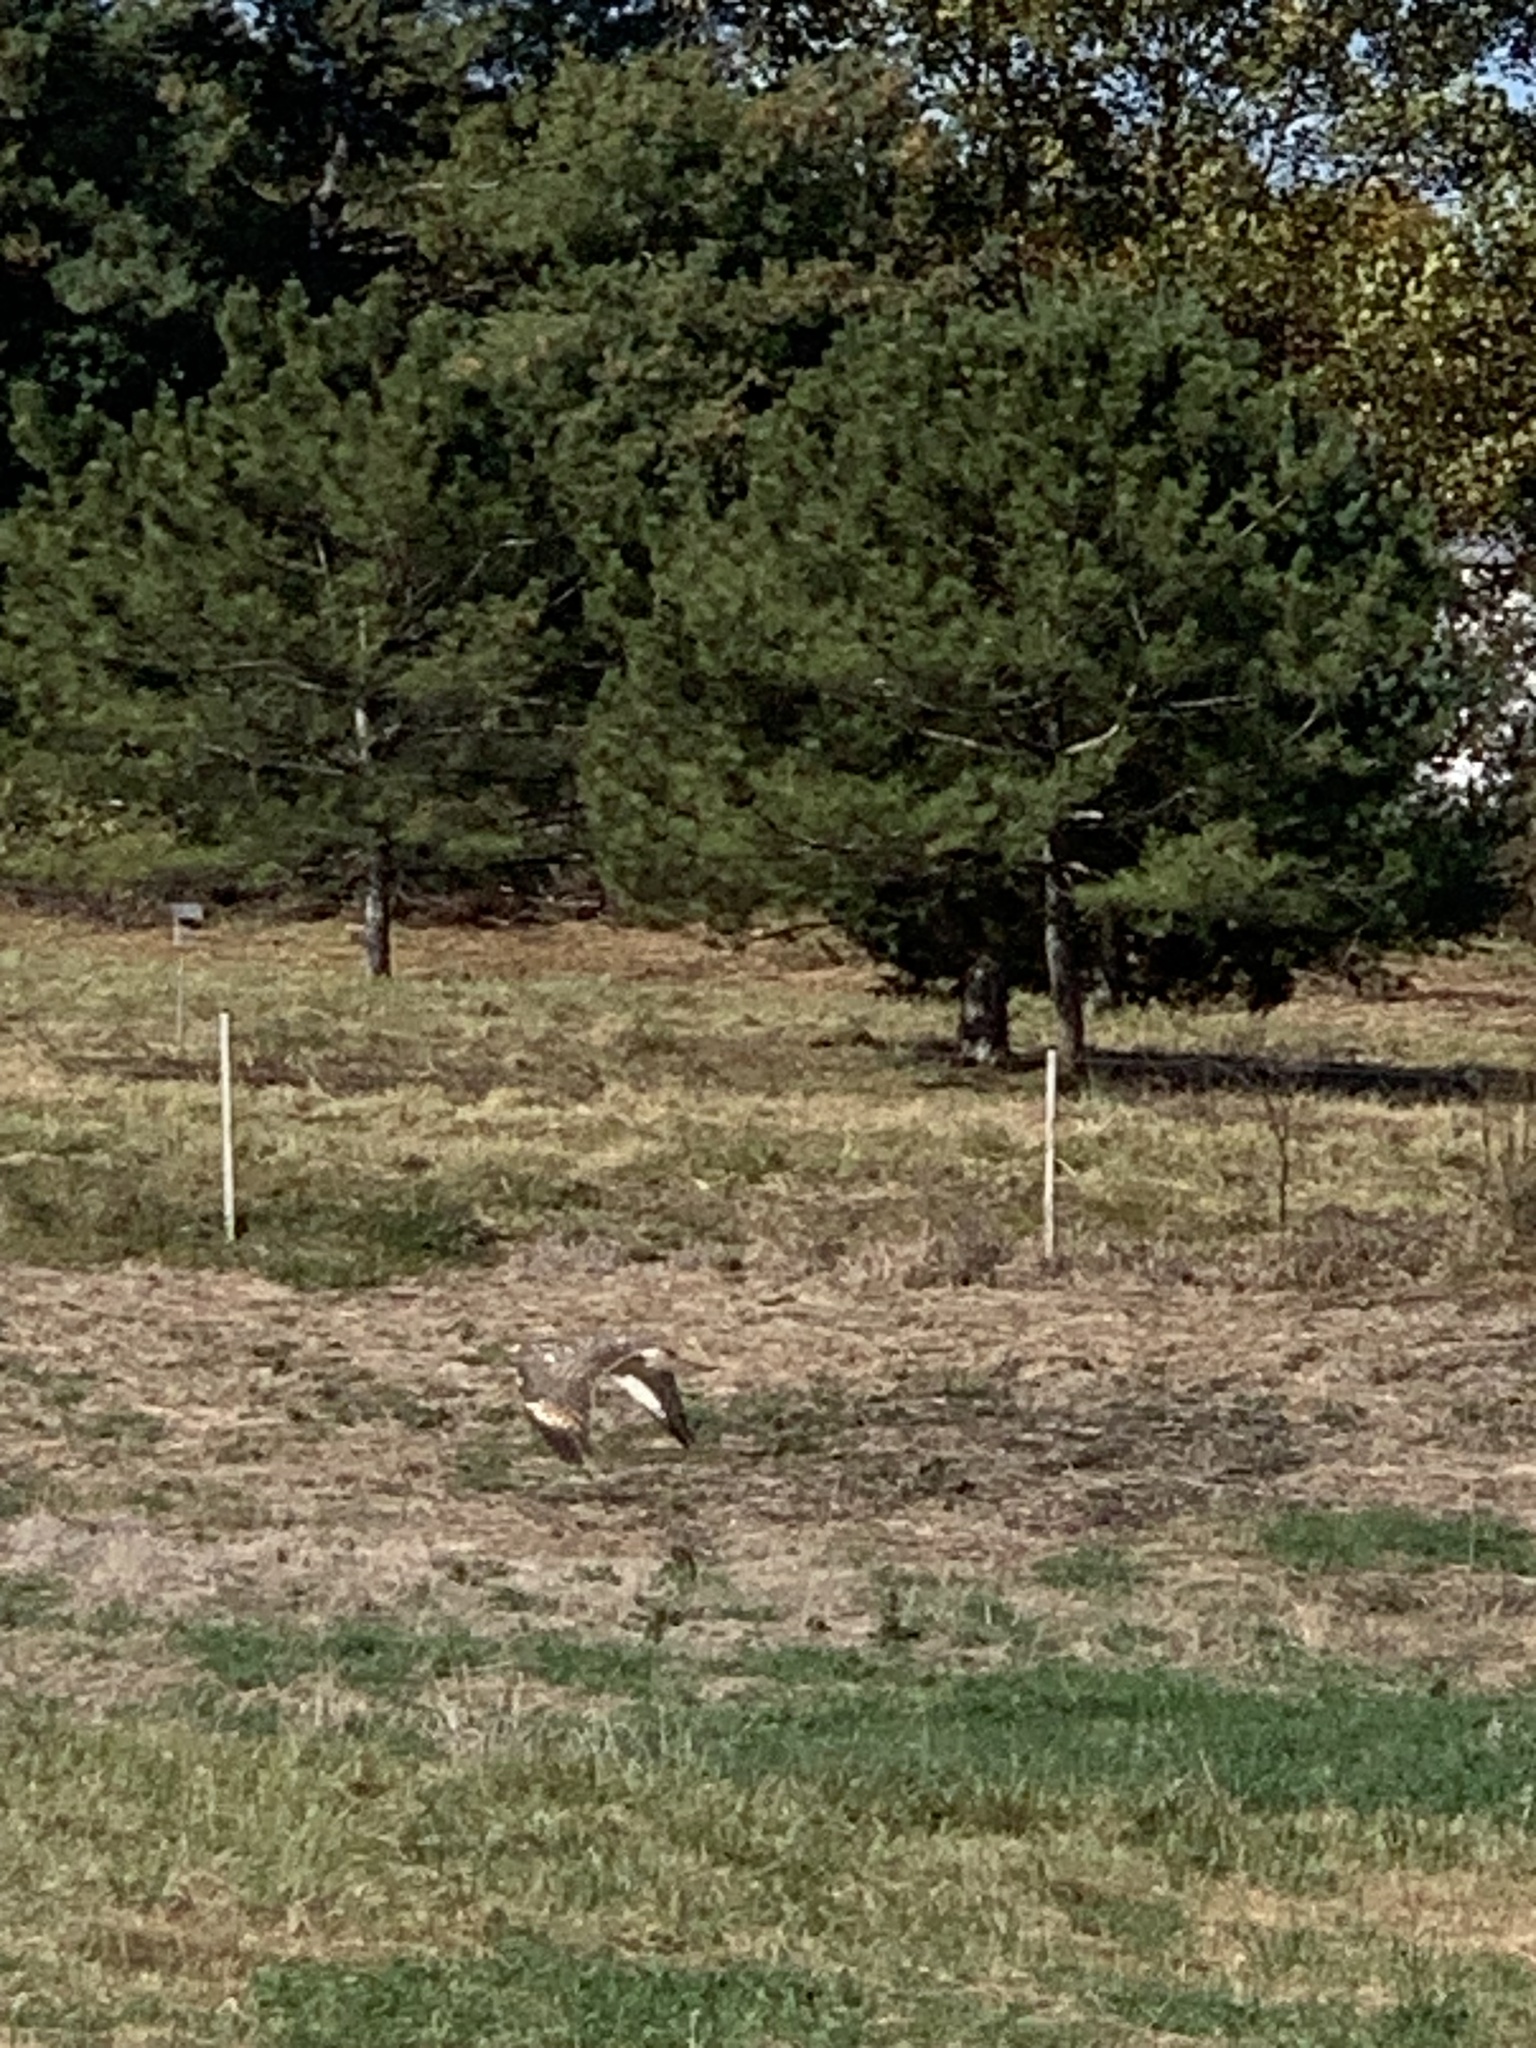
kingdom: Animalia
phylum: Chordata
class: Aves
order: Accipitriformes
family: Accipitridae
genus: Buteo
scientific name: Buteo lineatus
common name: Red-shouldered hawk
